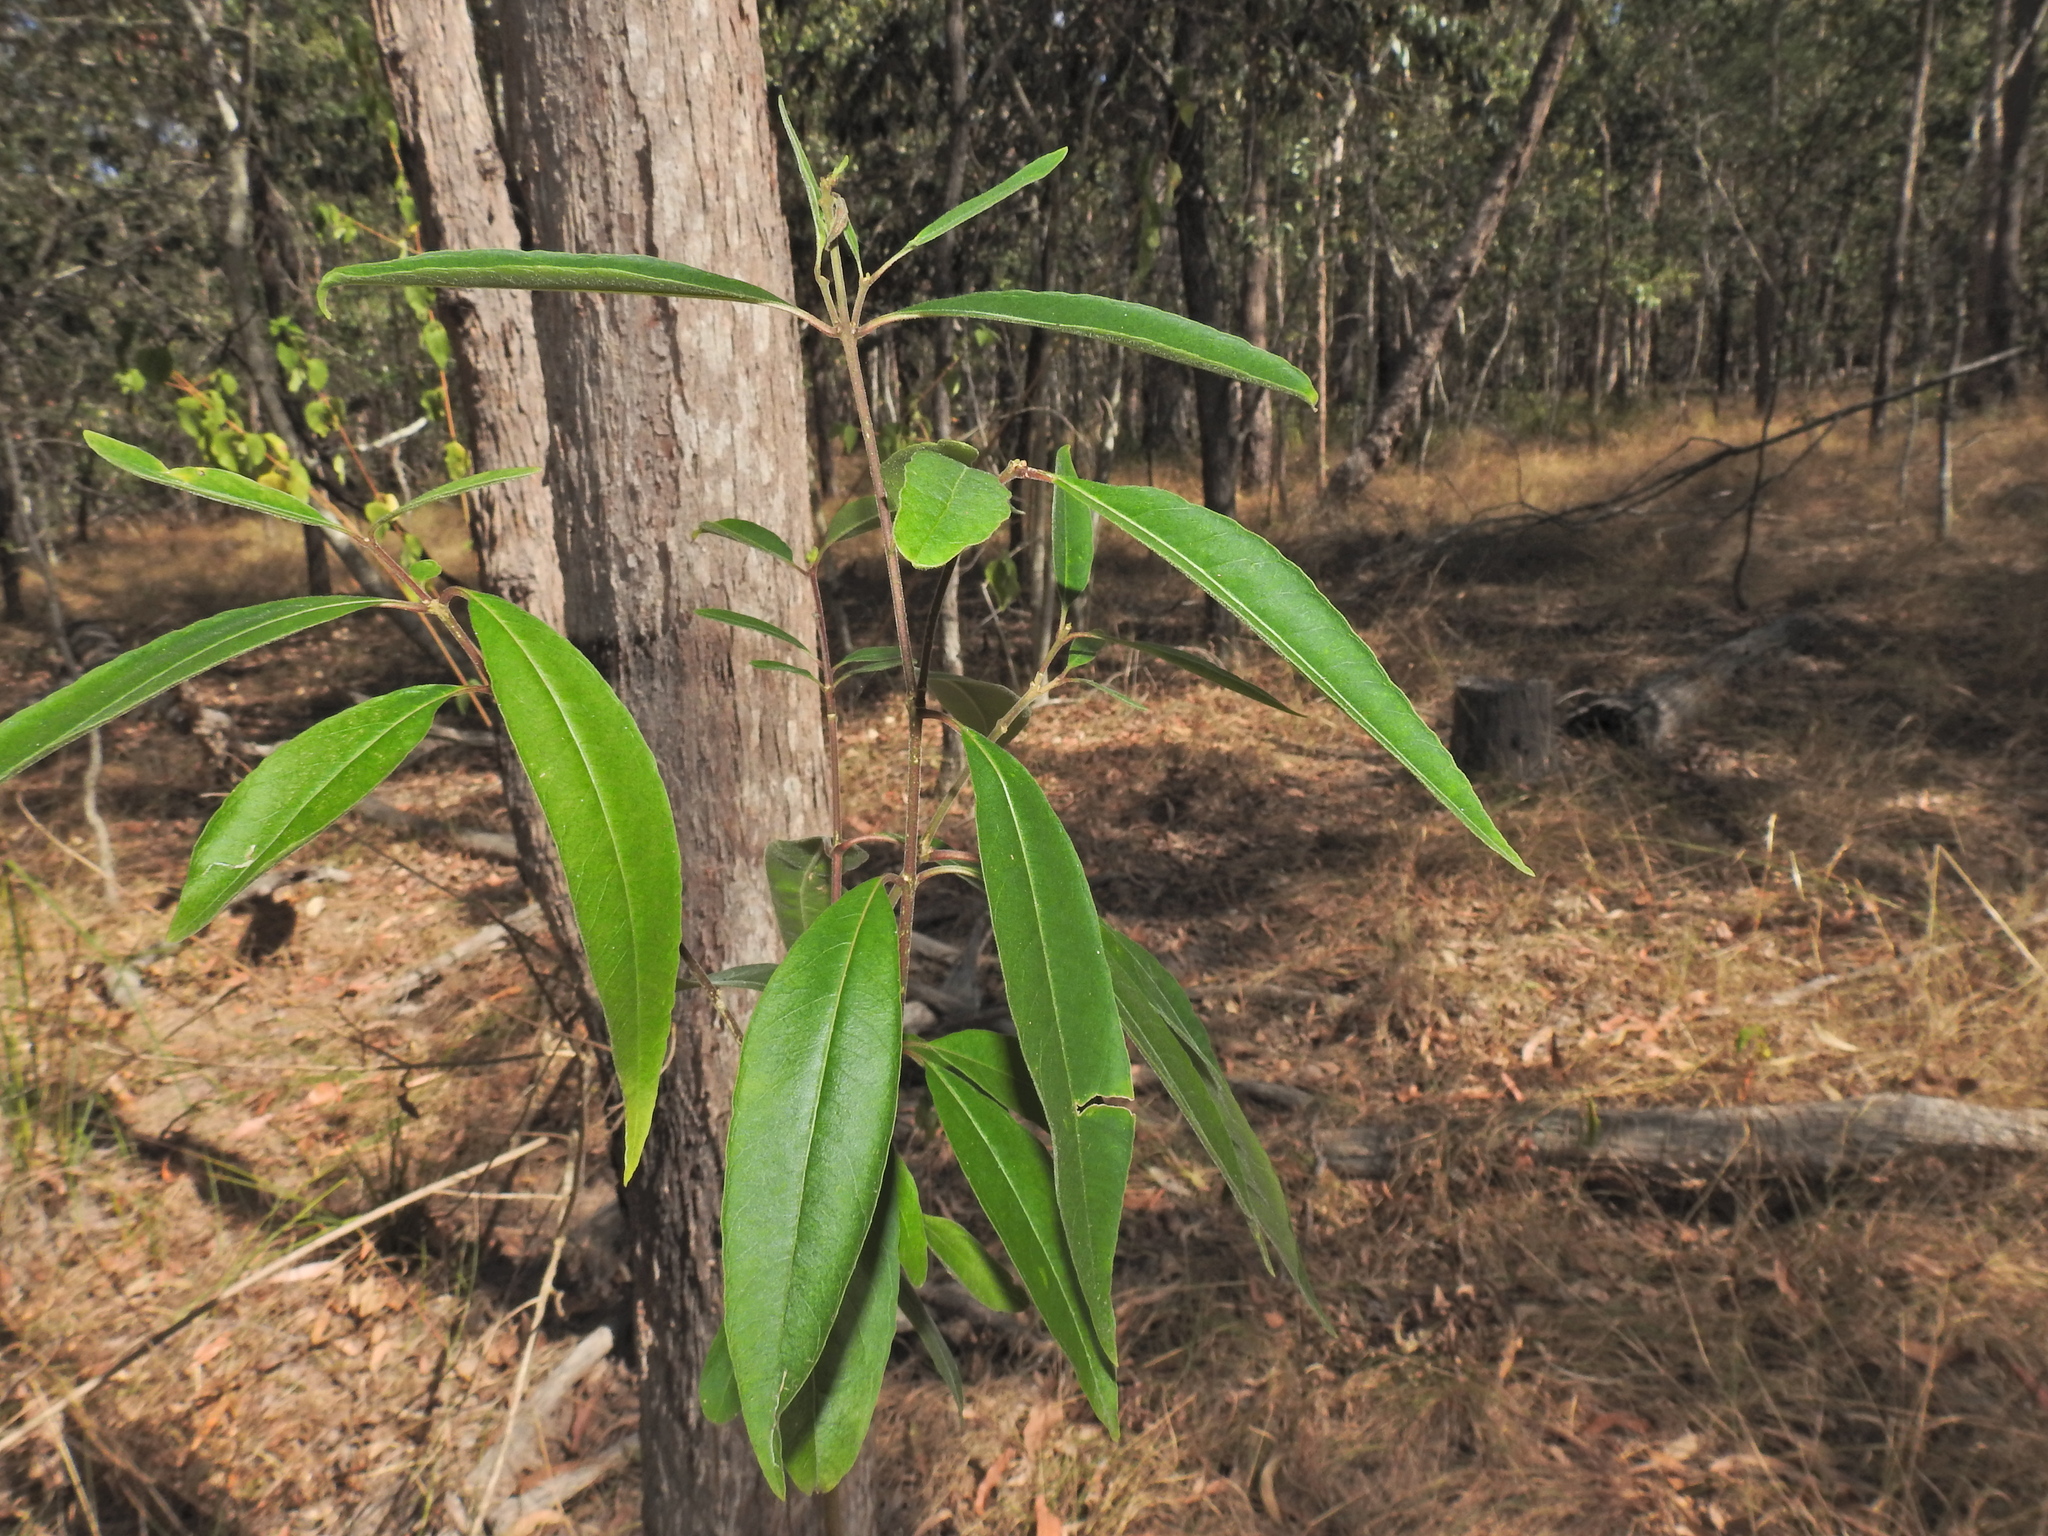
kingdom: Plantae
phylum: Tracheophyta
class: Magnoliopsida
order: Gentianales
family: Apocynaceae
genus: Alstonia
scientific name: Alstonia mollis
